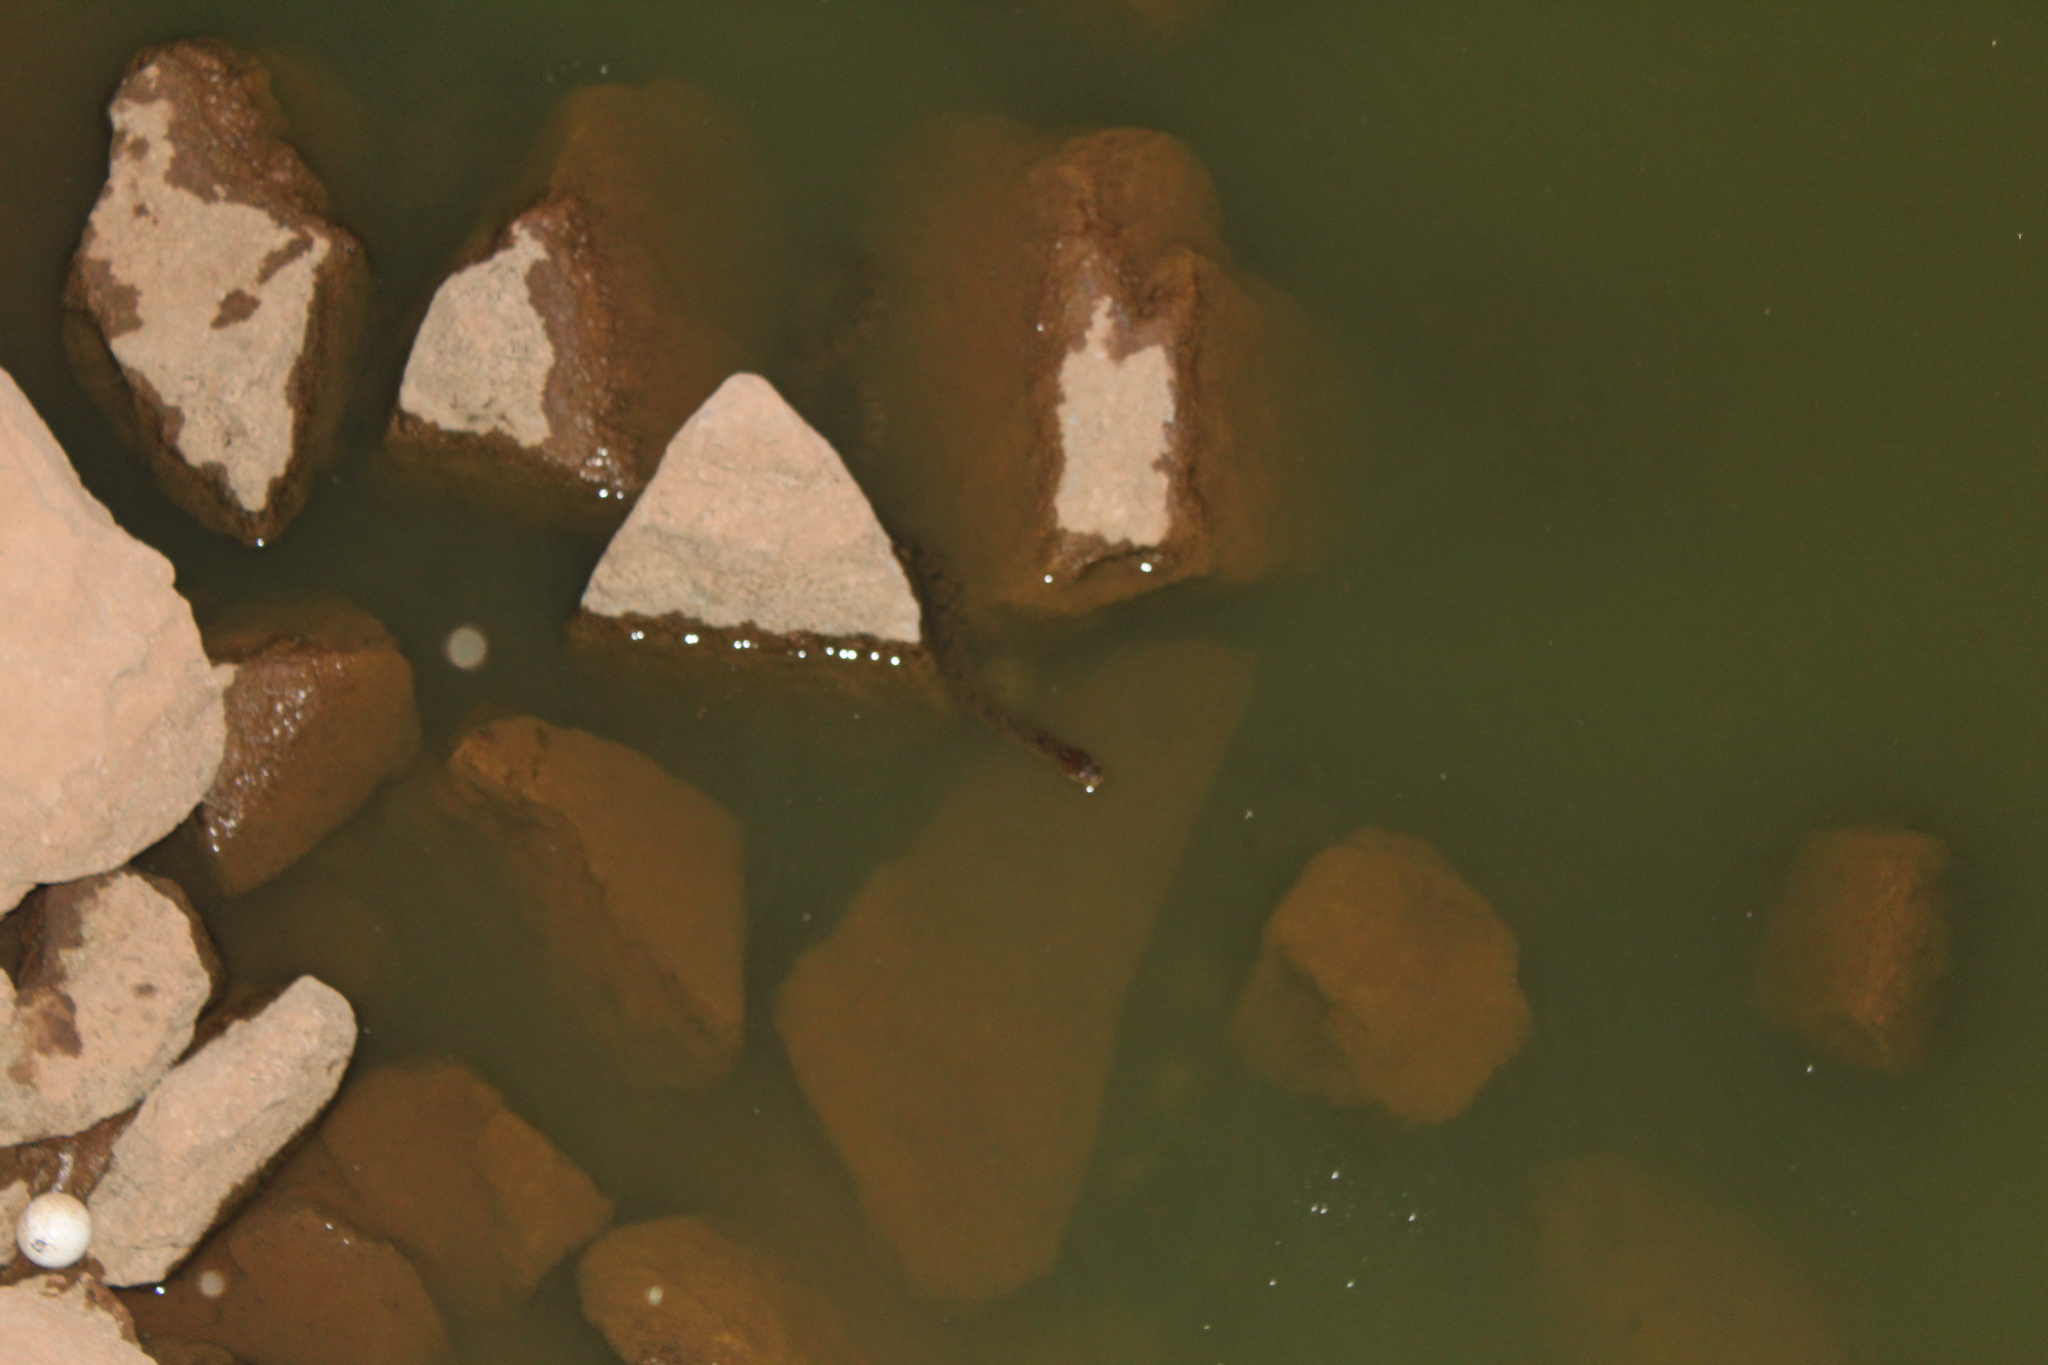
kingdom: Animalia
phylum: Chordata
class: Squamata
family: Colubridae
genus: Nerodia
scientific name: Nerodia rhombifer
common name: Diamondback water snake
